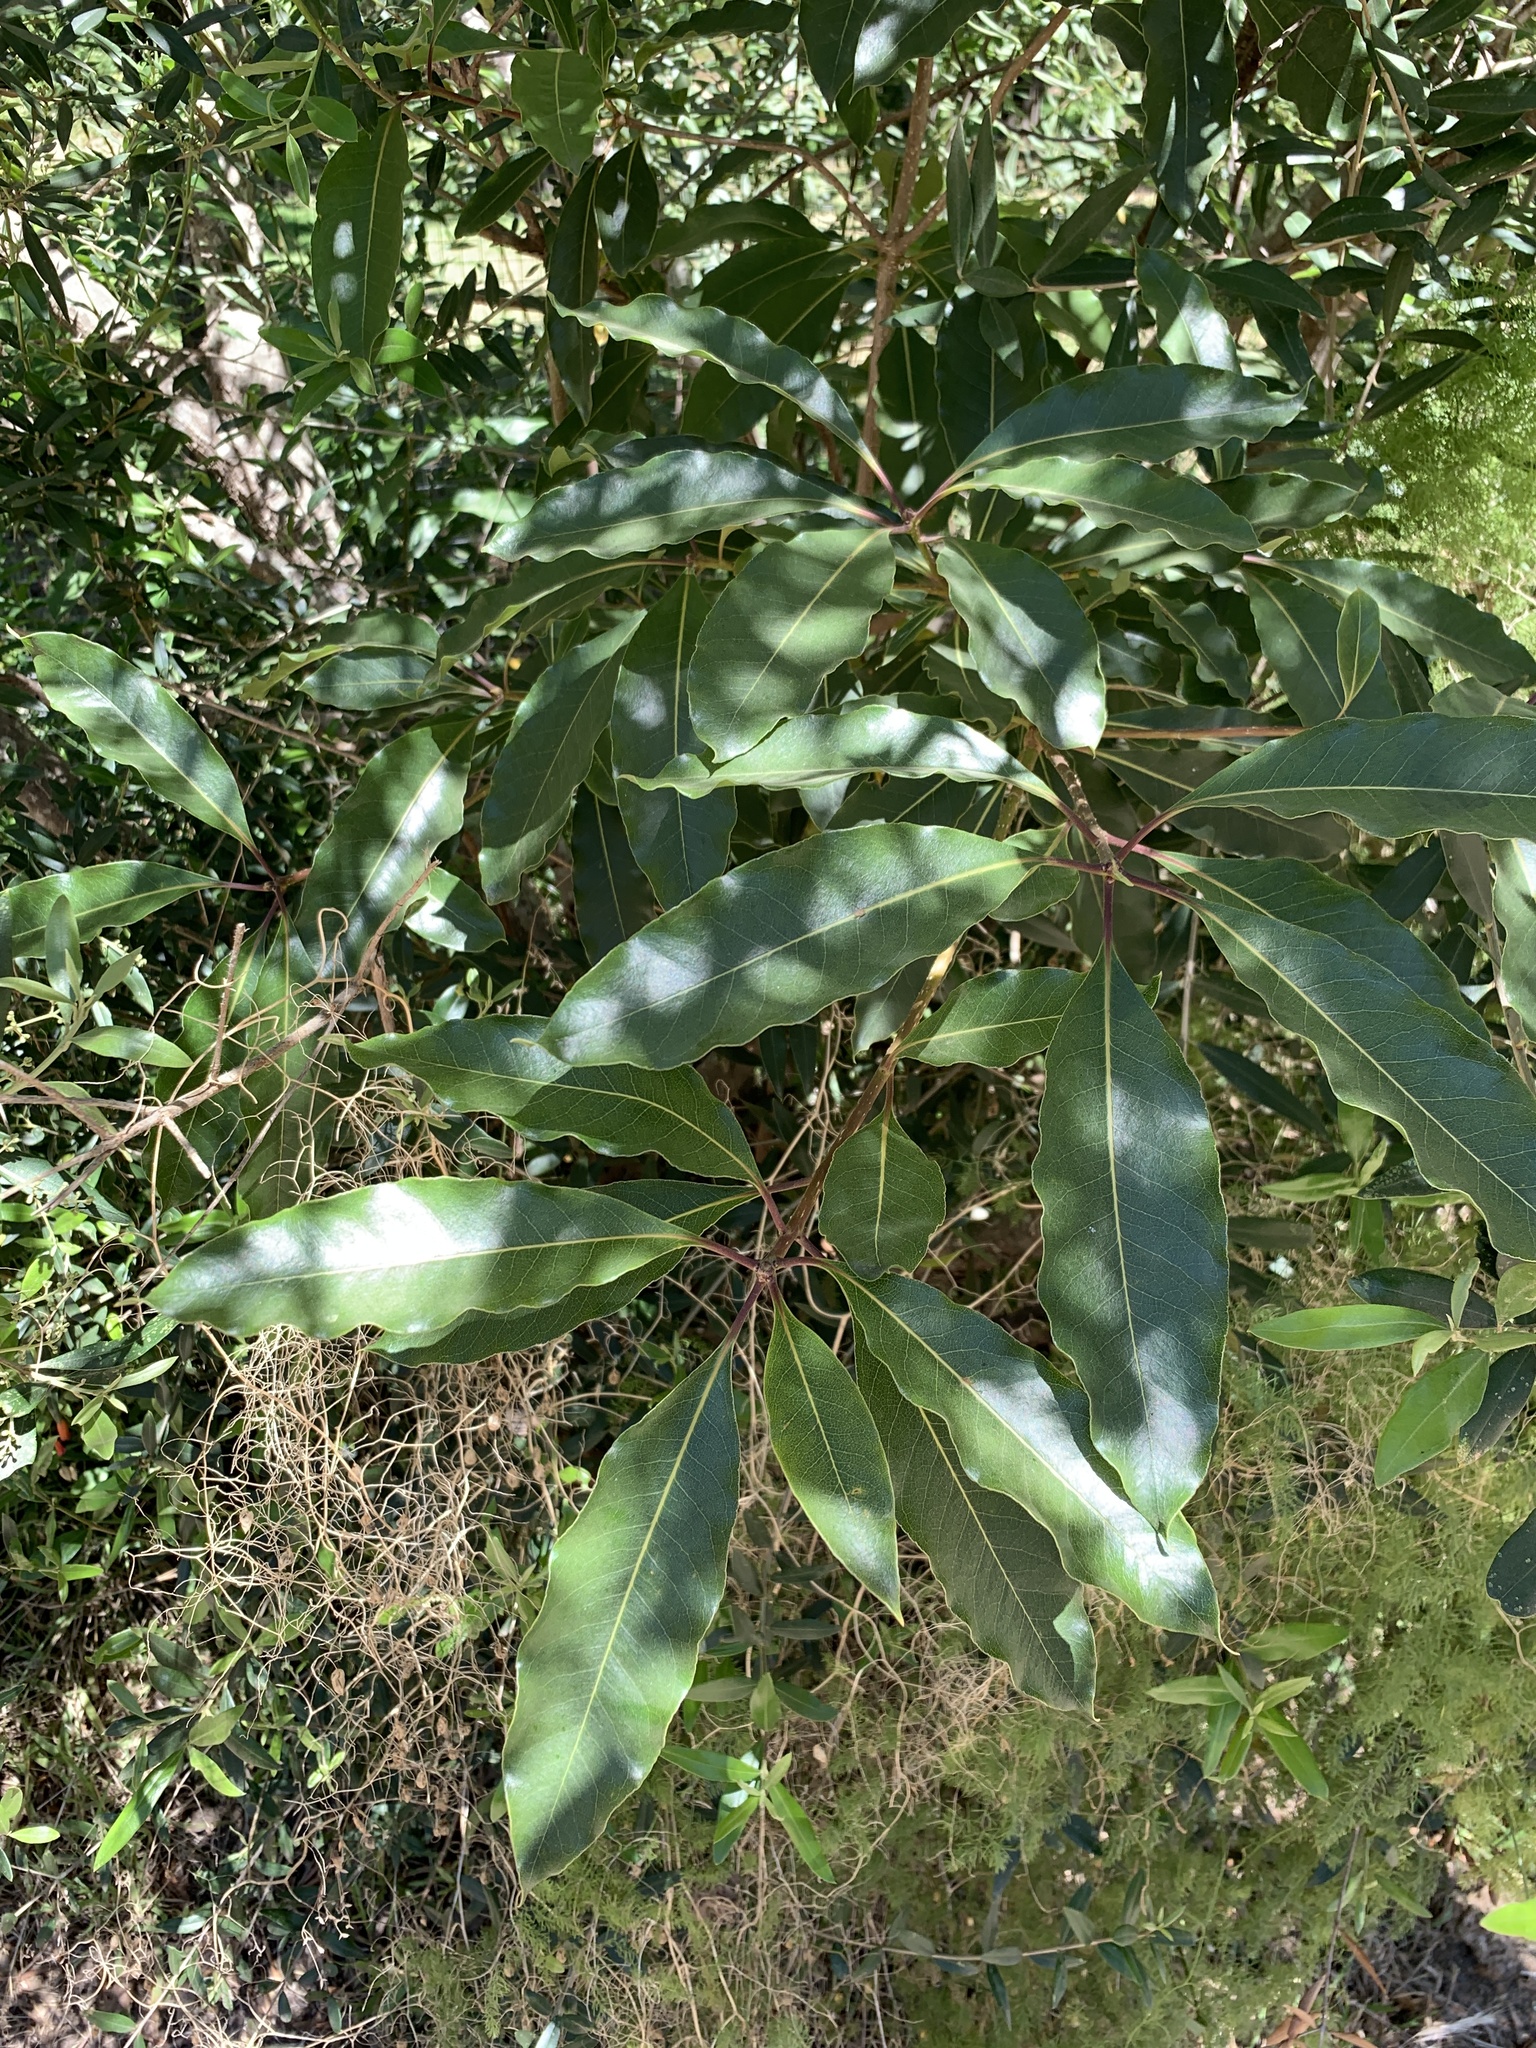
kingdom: Plantae
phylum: Tracheophyta
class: Magnoliopsida
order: Apiales
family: Pittosporaceae
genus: Pittosporum
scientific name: Pittosporum undulatum
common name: Australian cheesewood
